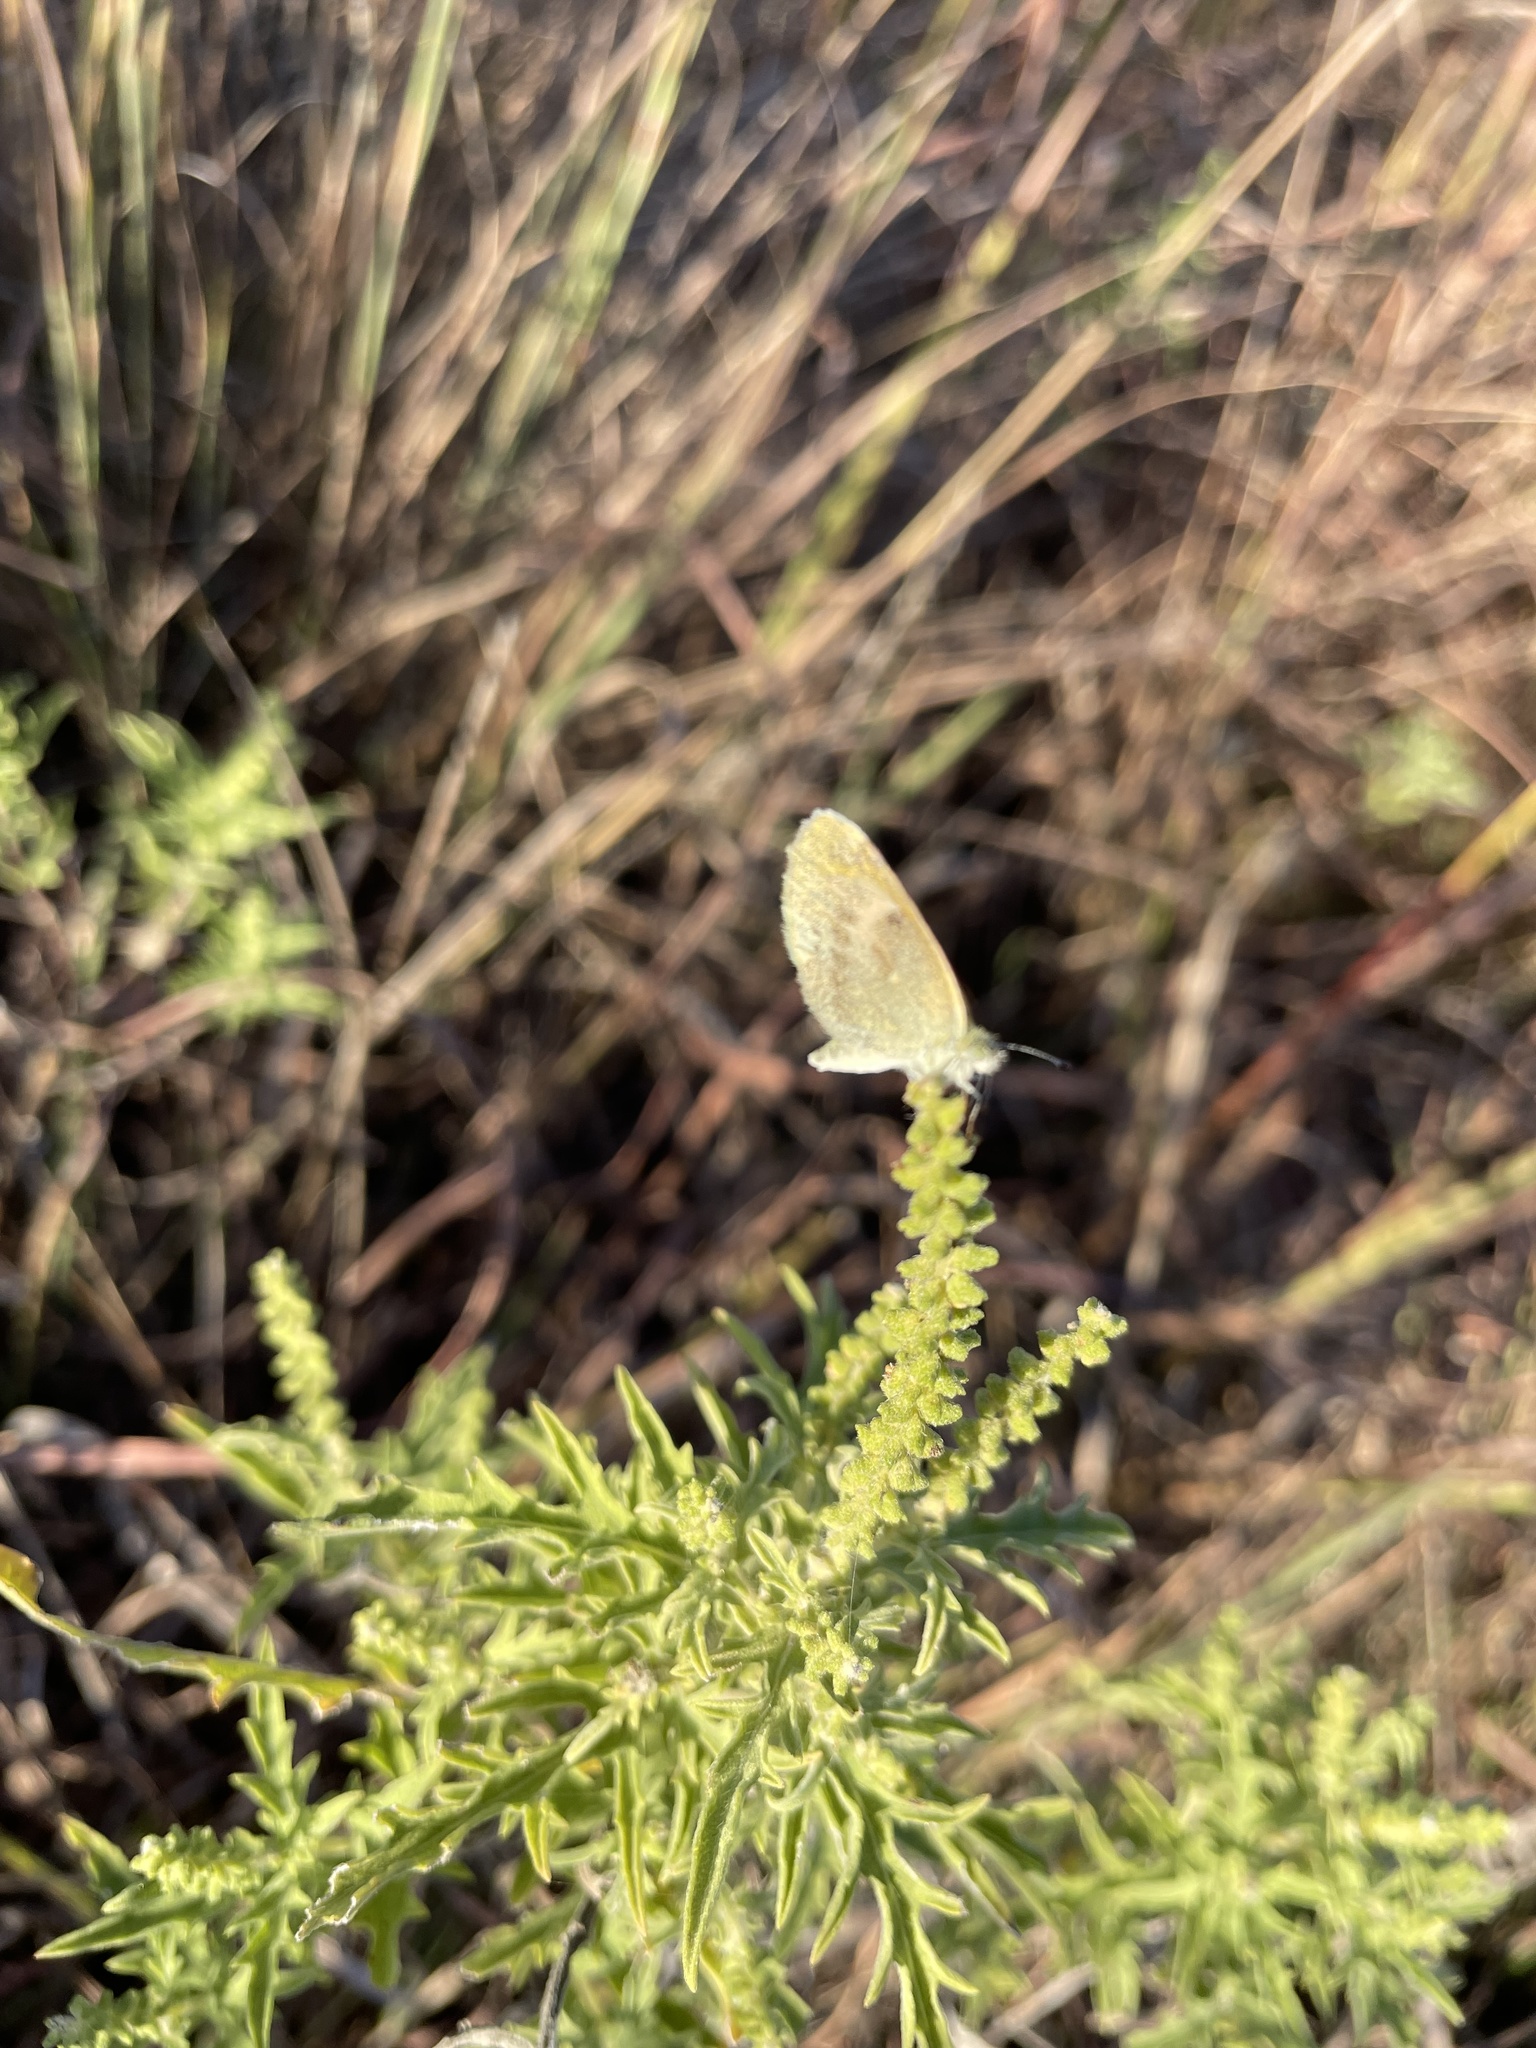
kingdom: Animalia
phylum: Arthropoda
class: Insecta
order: Lepidoptera
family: Pieridae
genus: Nathalis
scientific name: Nathalis iole
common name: Dainty sulphur
